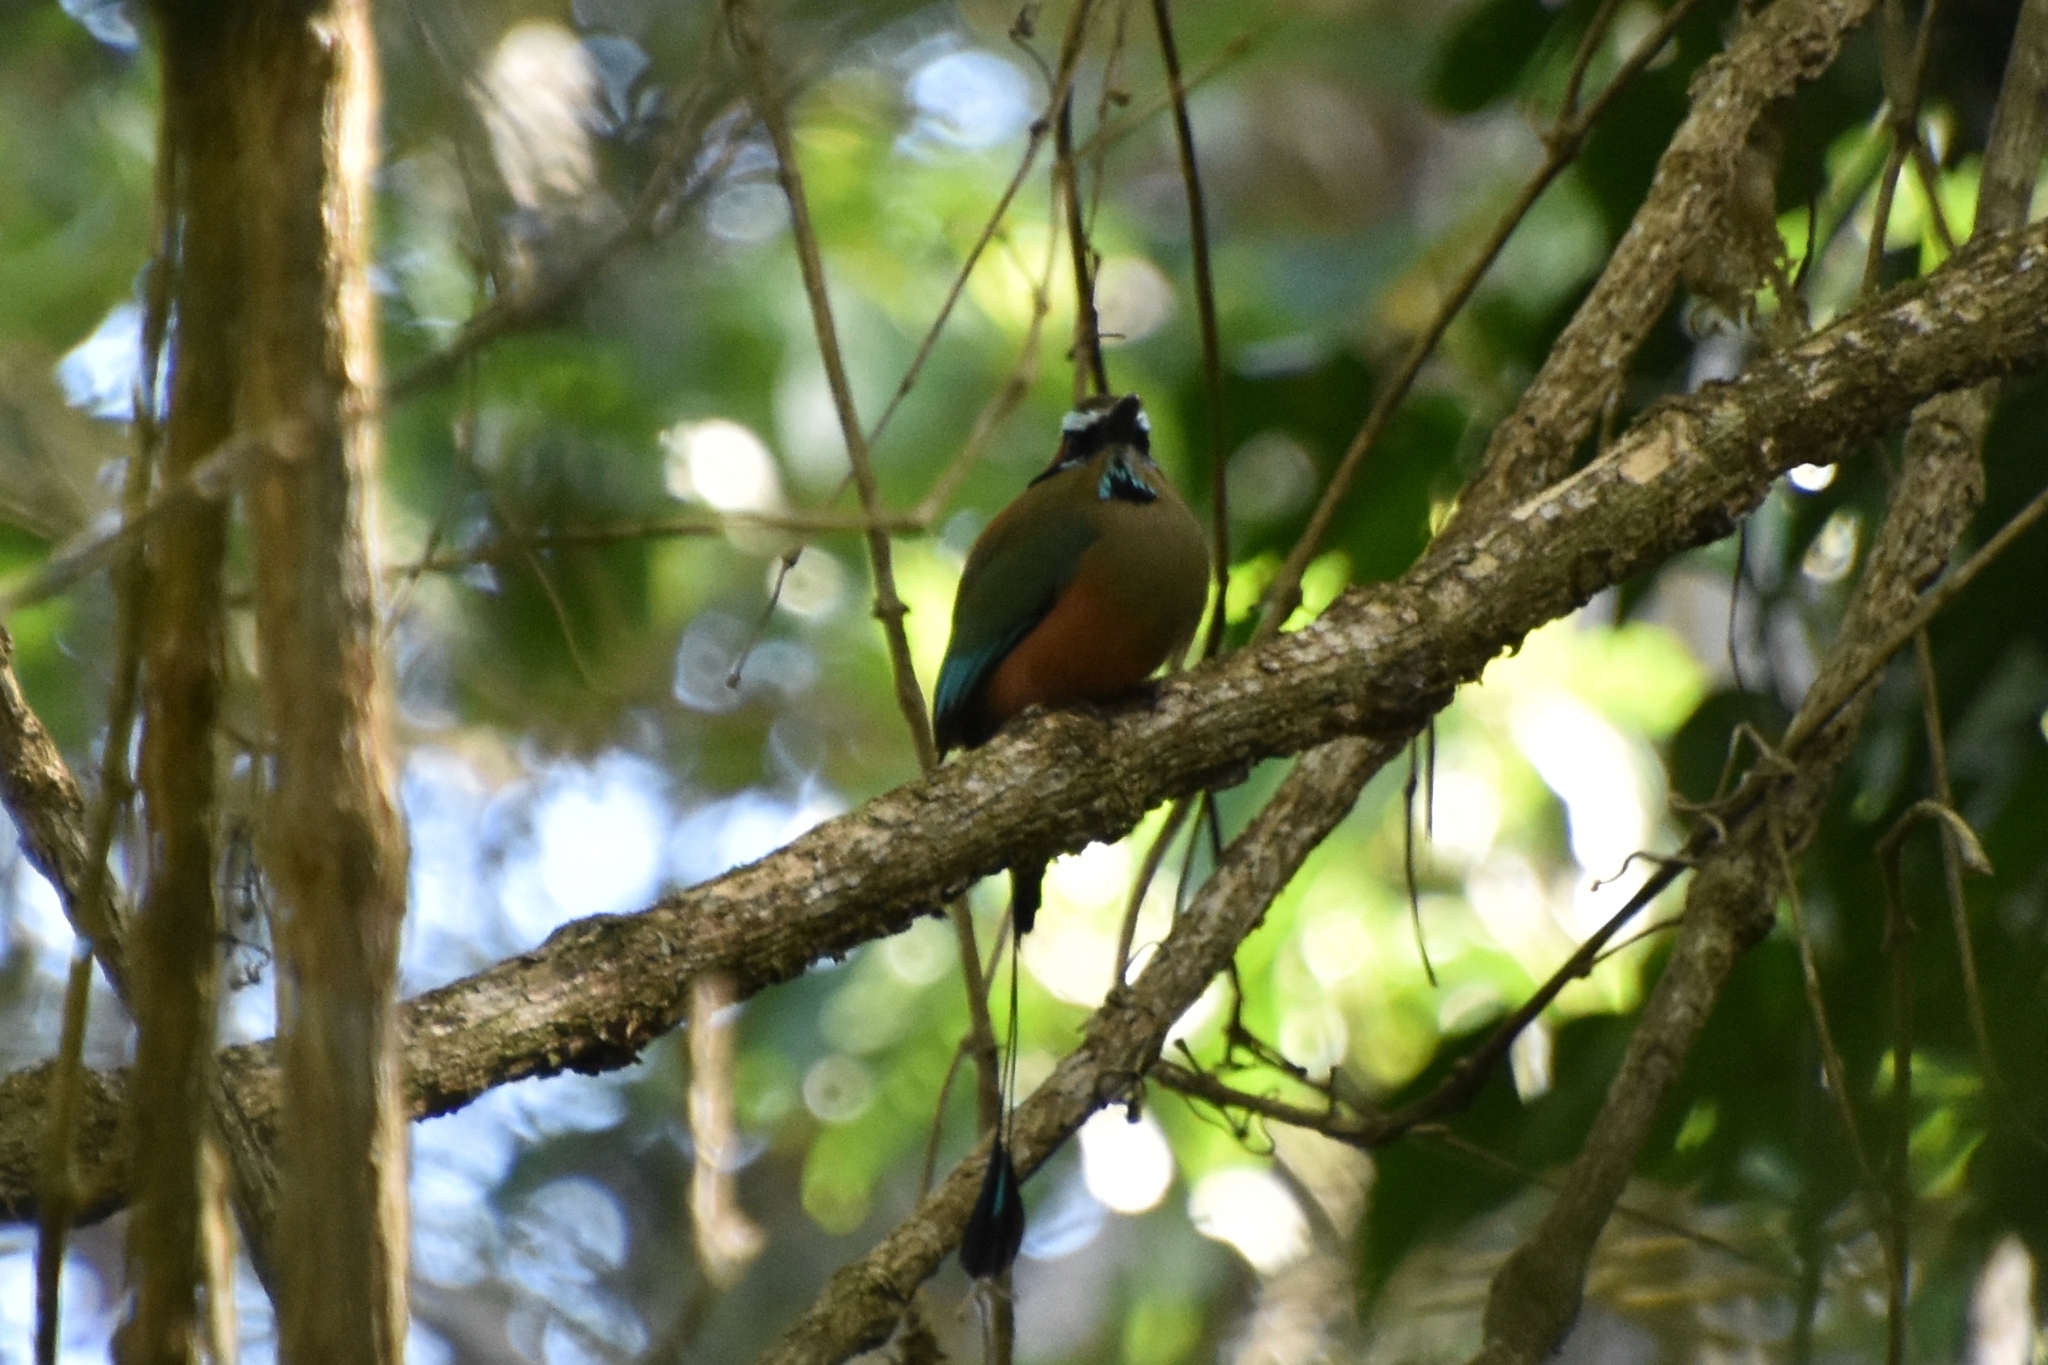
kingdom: Animalia
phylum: Chordata
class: Aves
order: Coraciiformes
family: Momotidae
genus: Eumomota
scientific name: Eumomota superciliosa
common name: Turquoise-browed motmot
